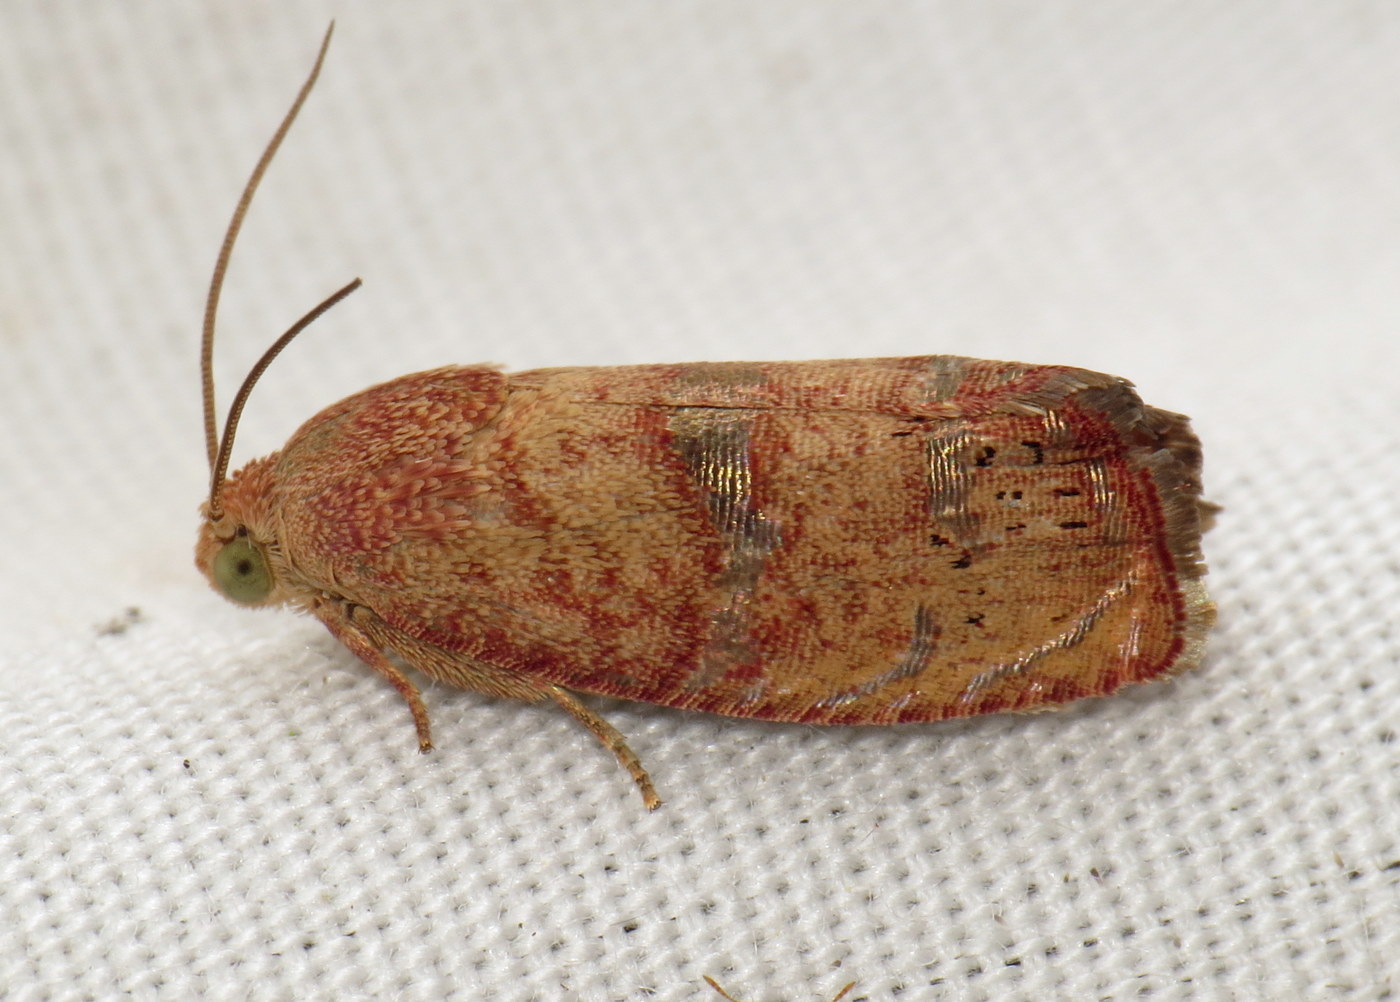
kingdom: Animalia
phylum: Arthropoda
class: Insecta
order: Lepidoptera
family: Tortricidae
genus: Cydia
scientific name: Cydia latiferreana
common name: Filbertworm moth
